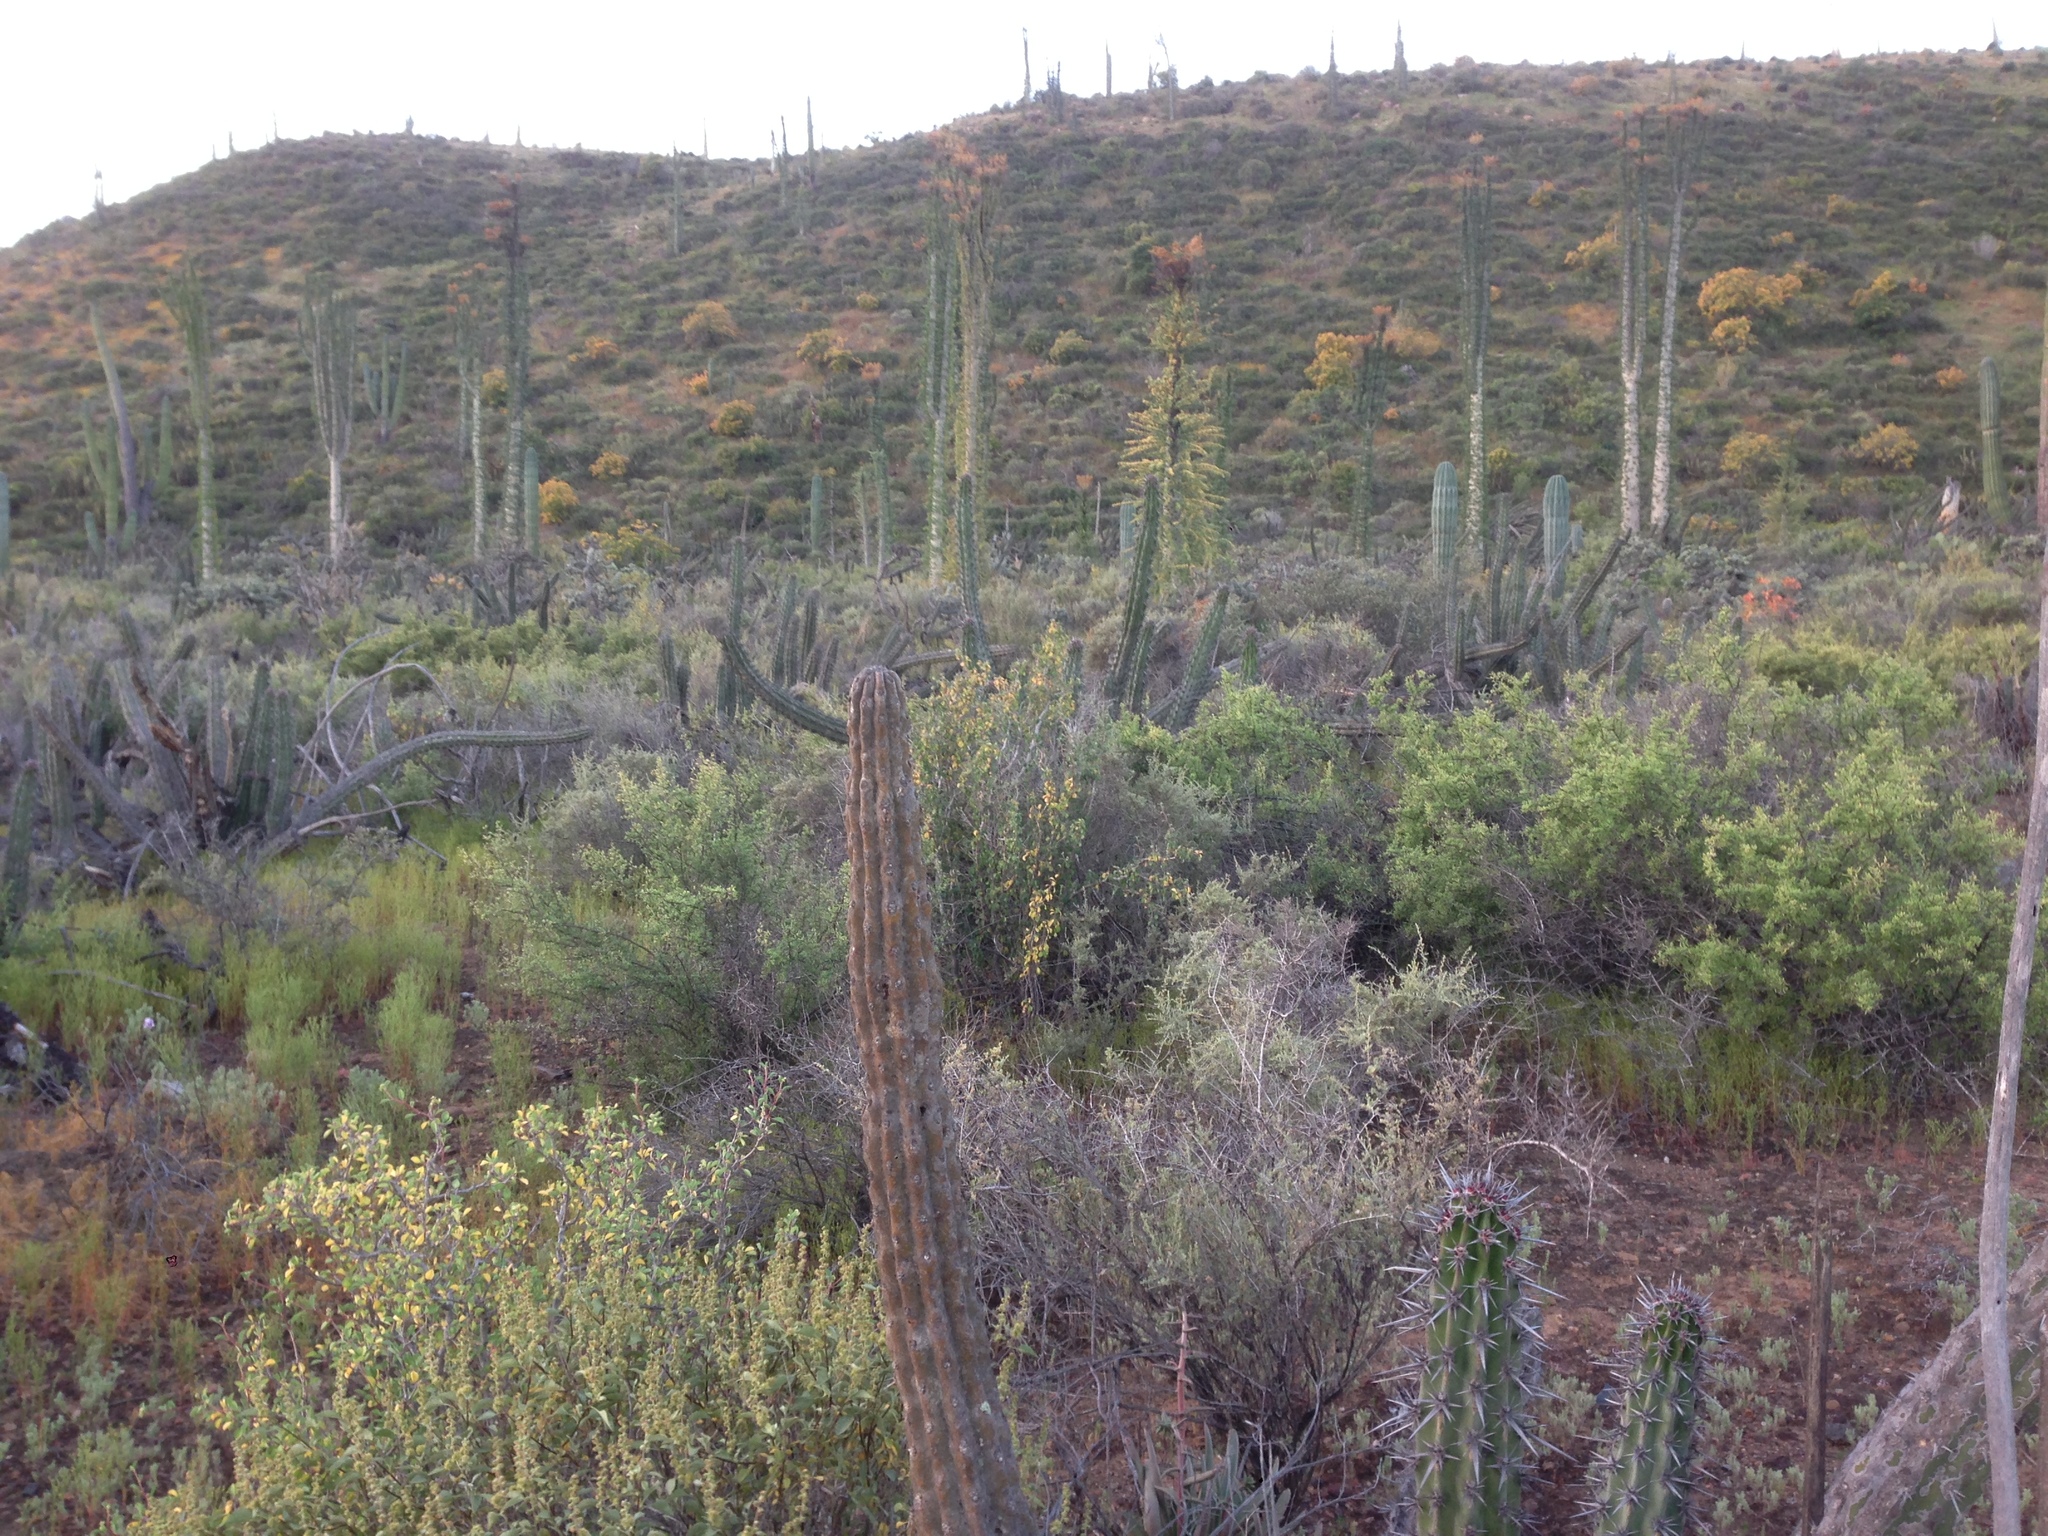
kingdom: Plantae
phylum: Tracheophyta
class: Magnoliopsida
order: Caryophyllales
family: Cactaceae
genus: Stenocereus
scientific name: Stenocereus gummosus
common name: Dagger cactus
